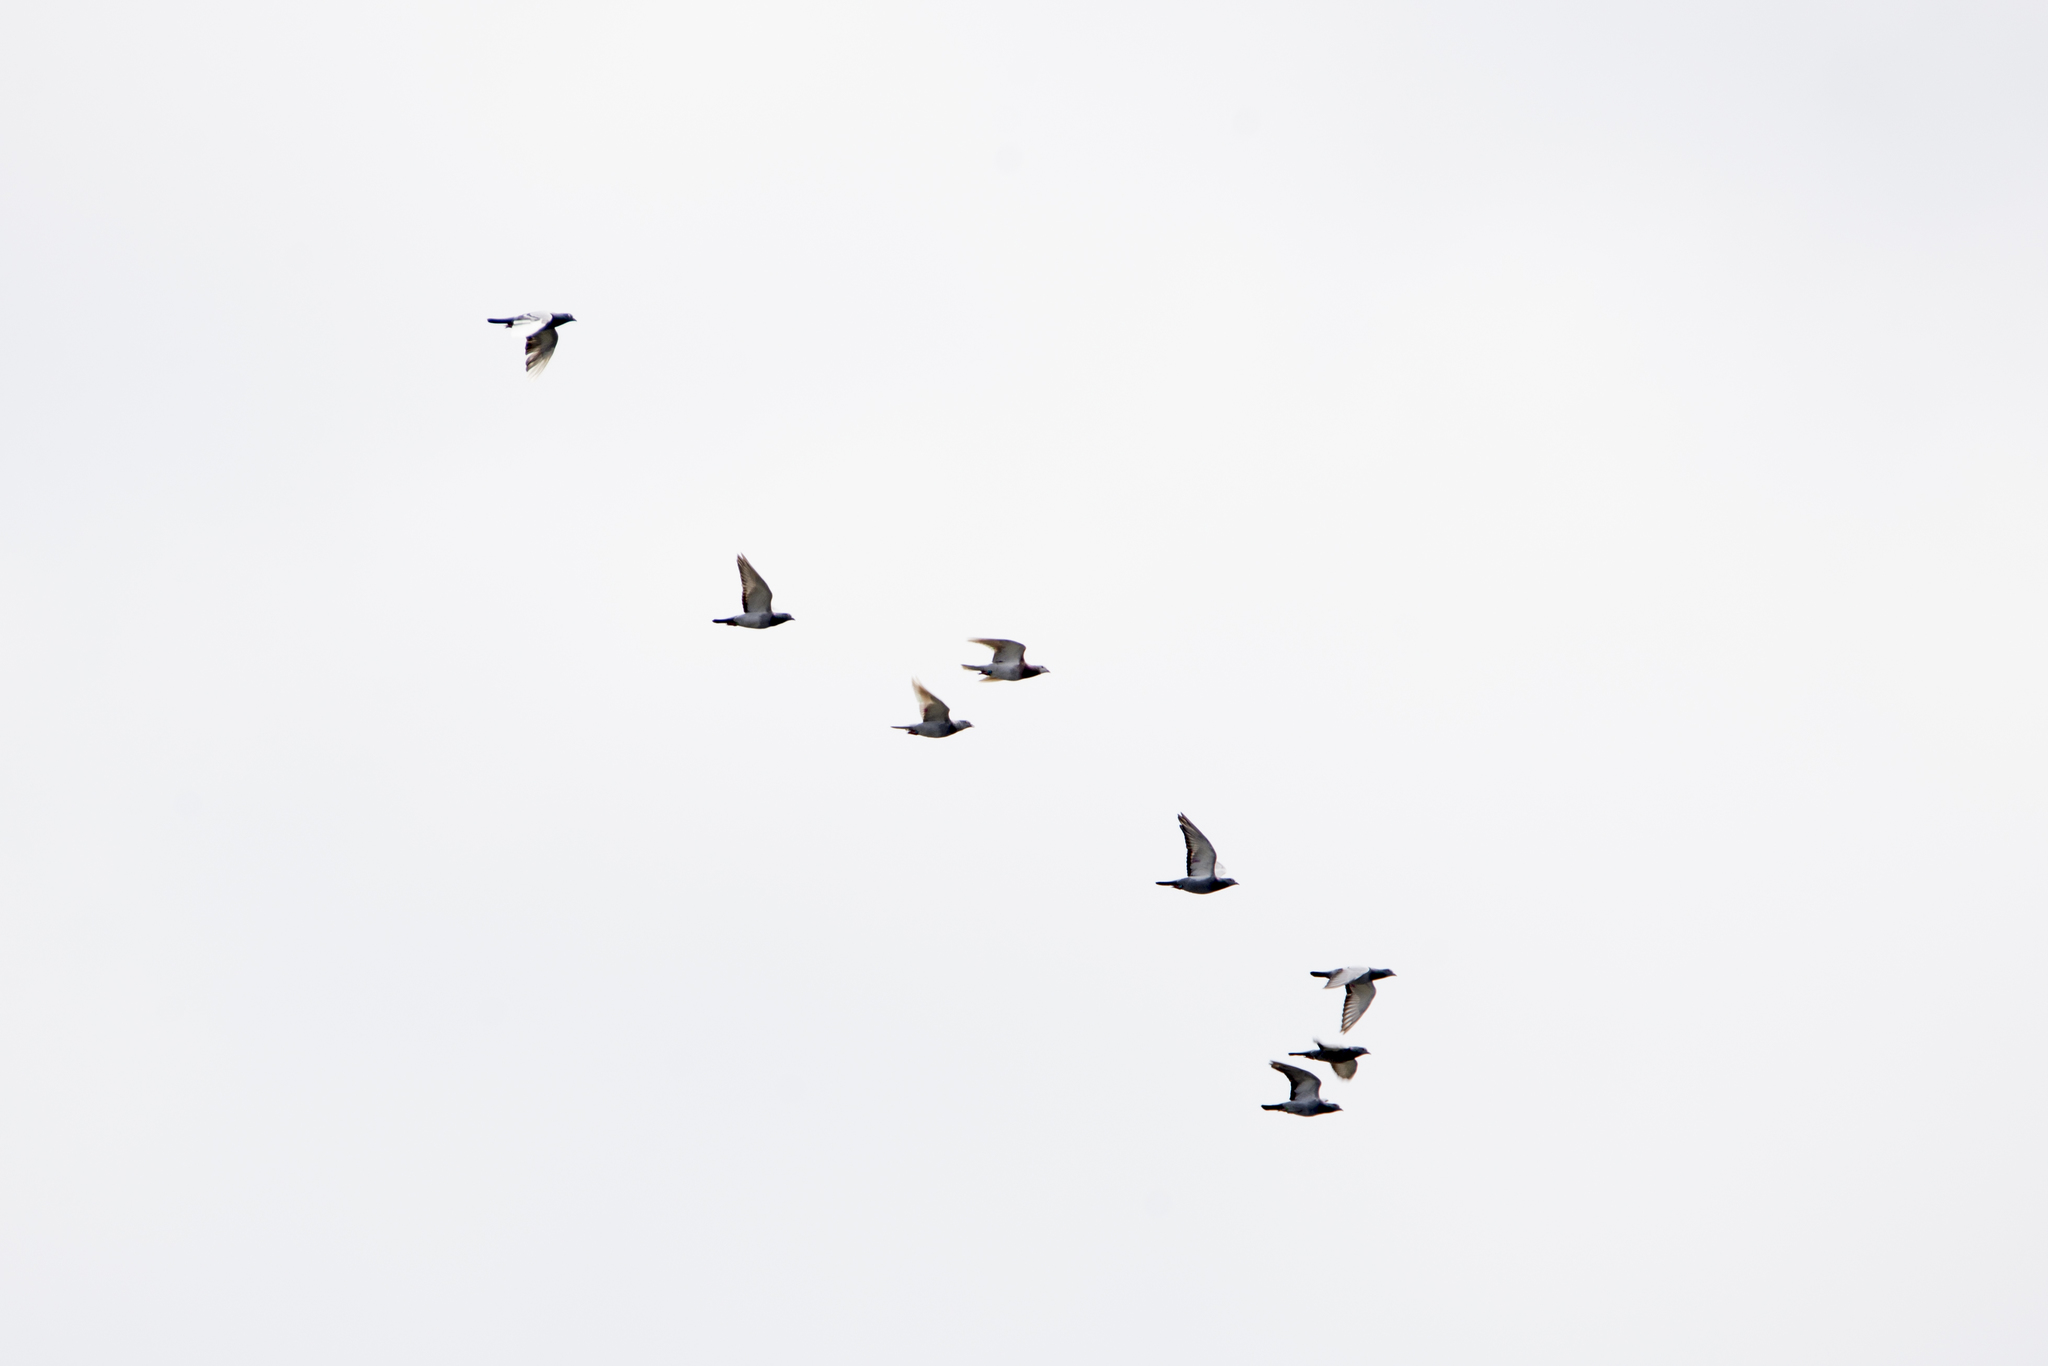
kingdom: Animalia
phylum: Chordata
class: Aves
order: Columbiformes
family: Columbidae
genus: Columba
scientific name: Columba livia
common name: Rock pigeon
